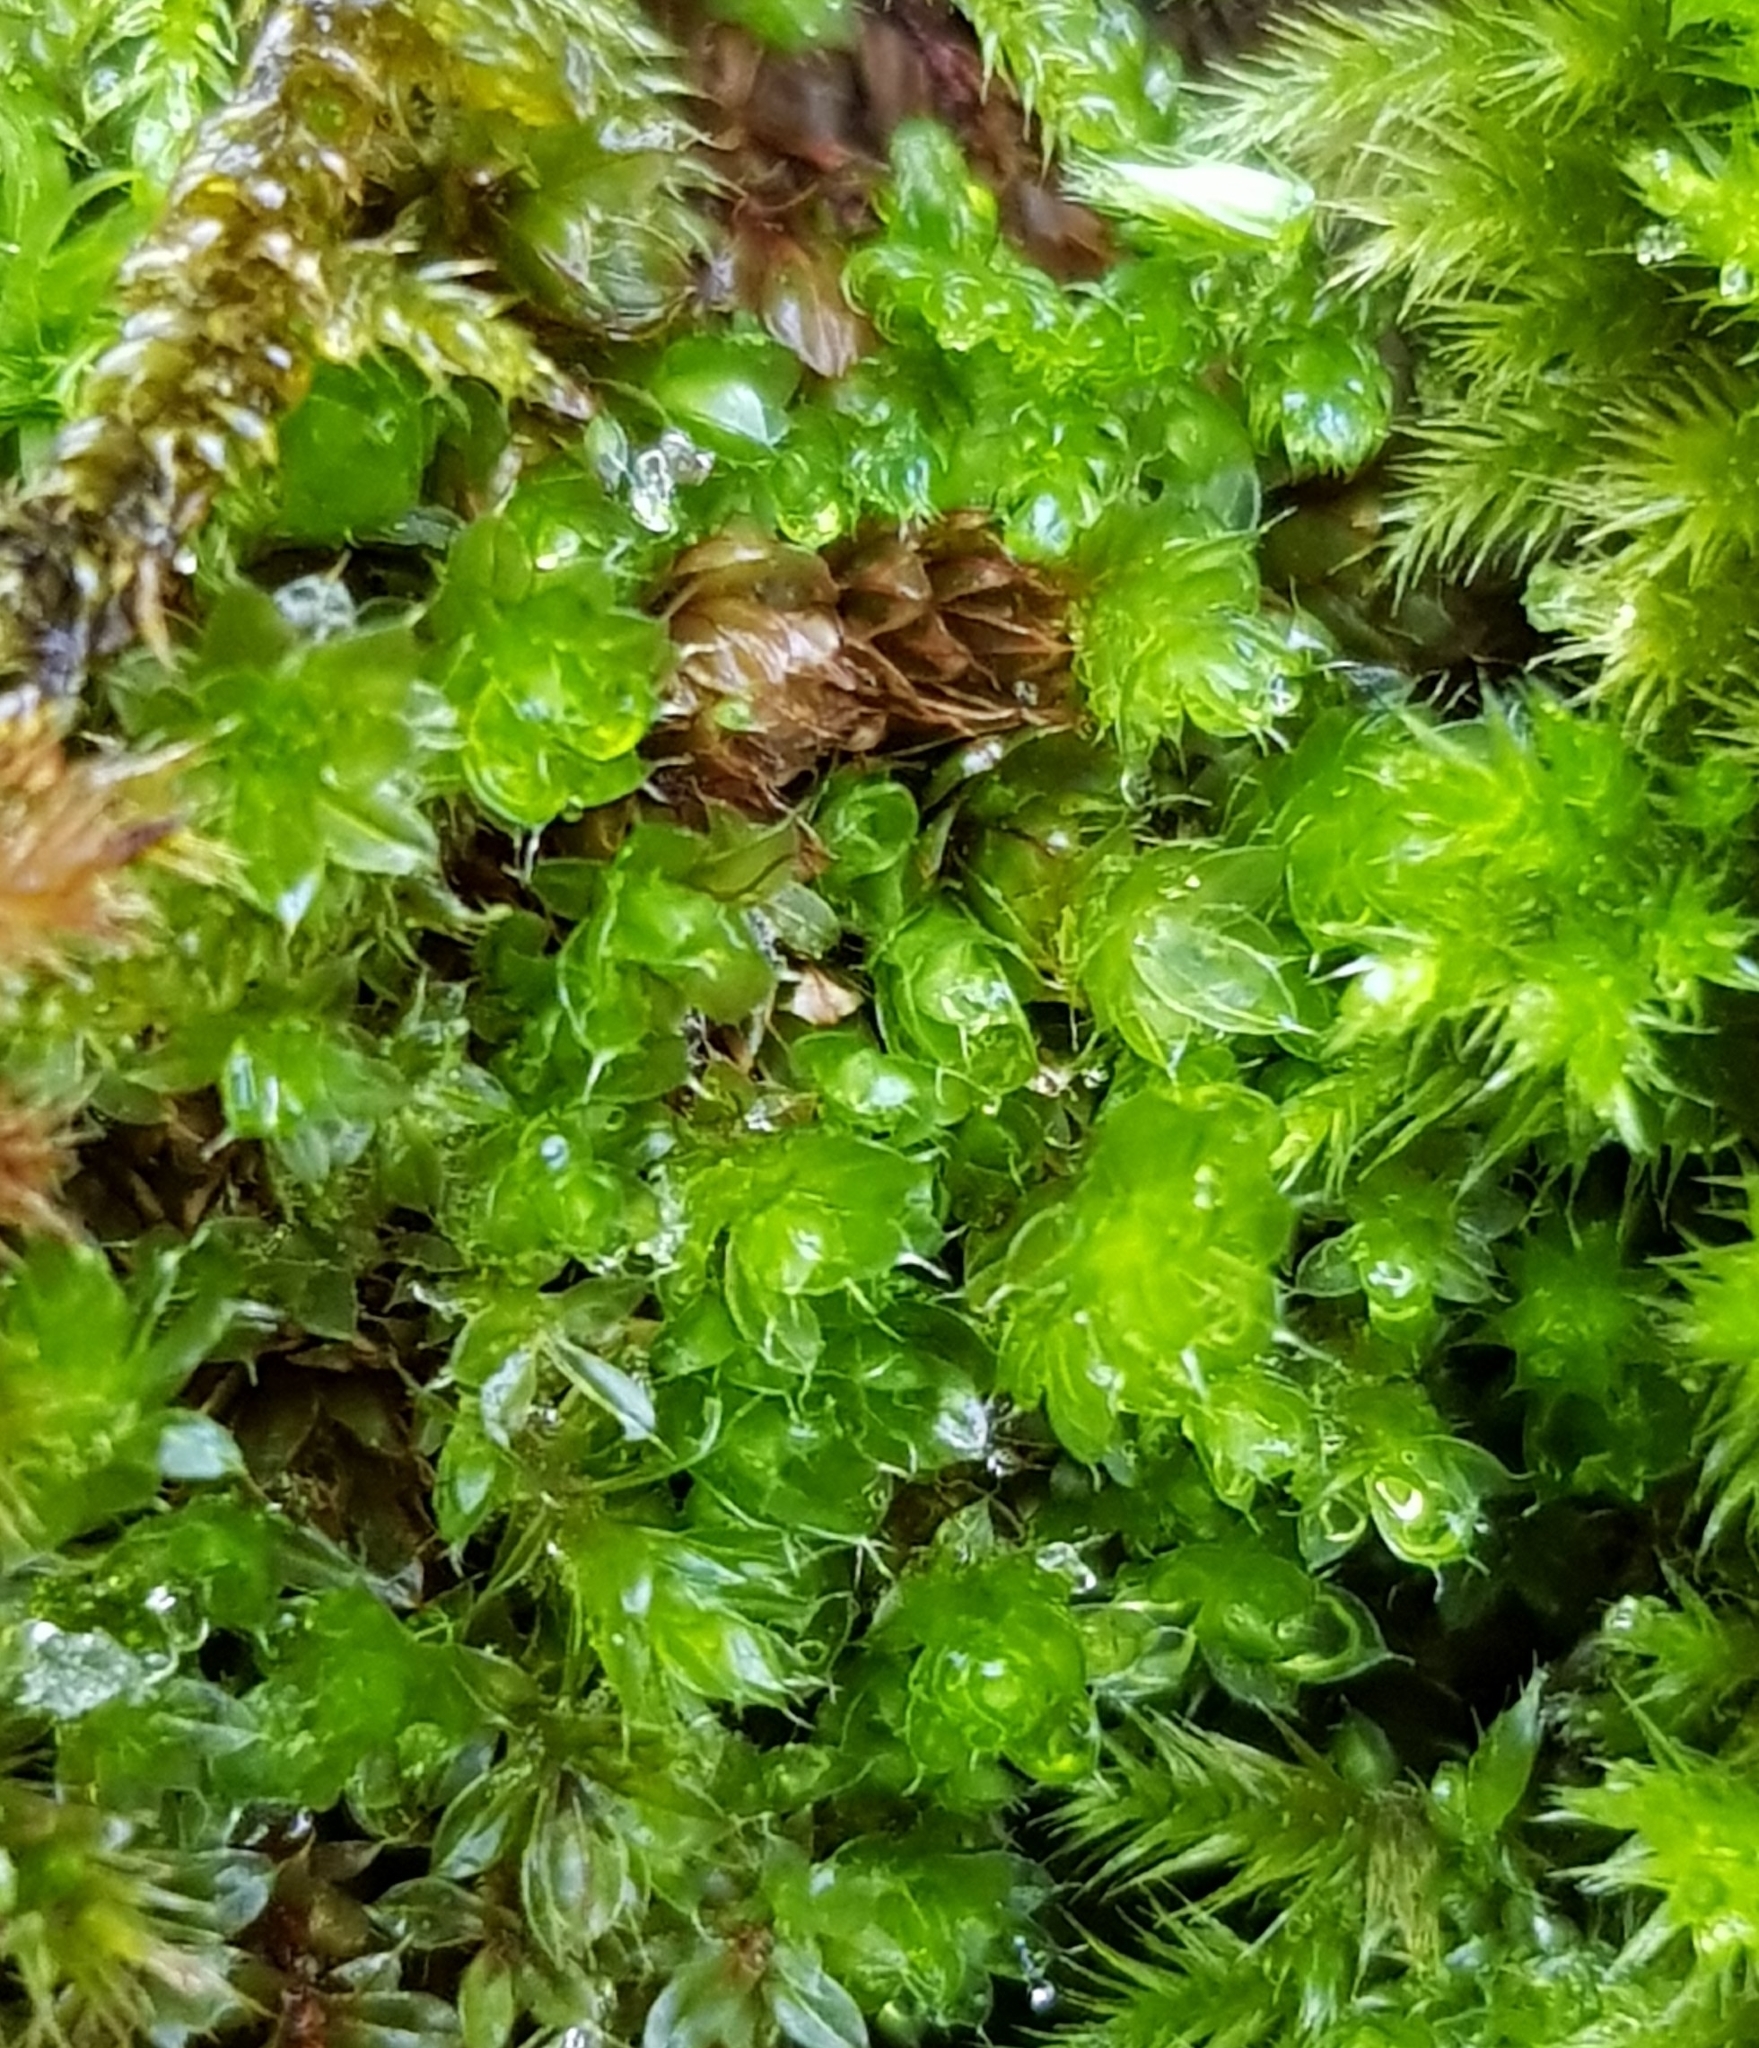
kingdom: Plantae
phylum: Bryophyta
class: Bryopsida
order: Bryales
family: Bryaceae
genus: Rosulabryum
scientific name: Rosulabryum capillare
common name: Capillary thread-moss
